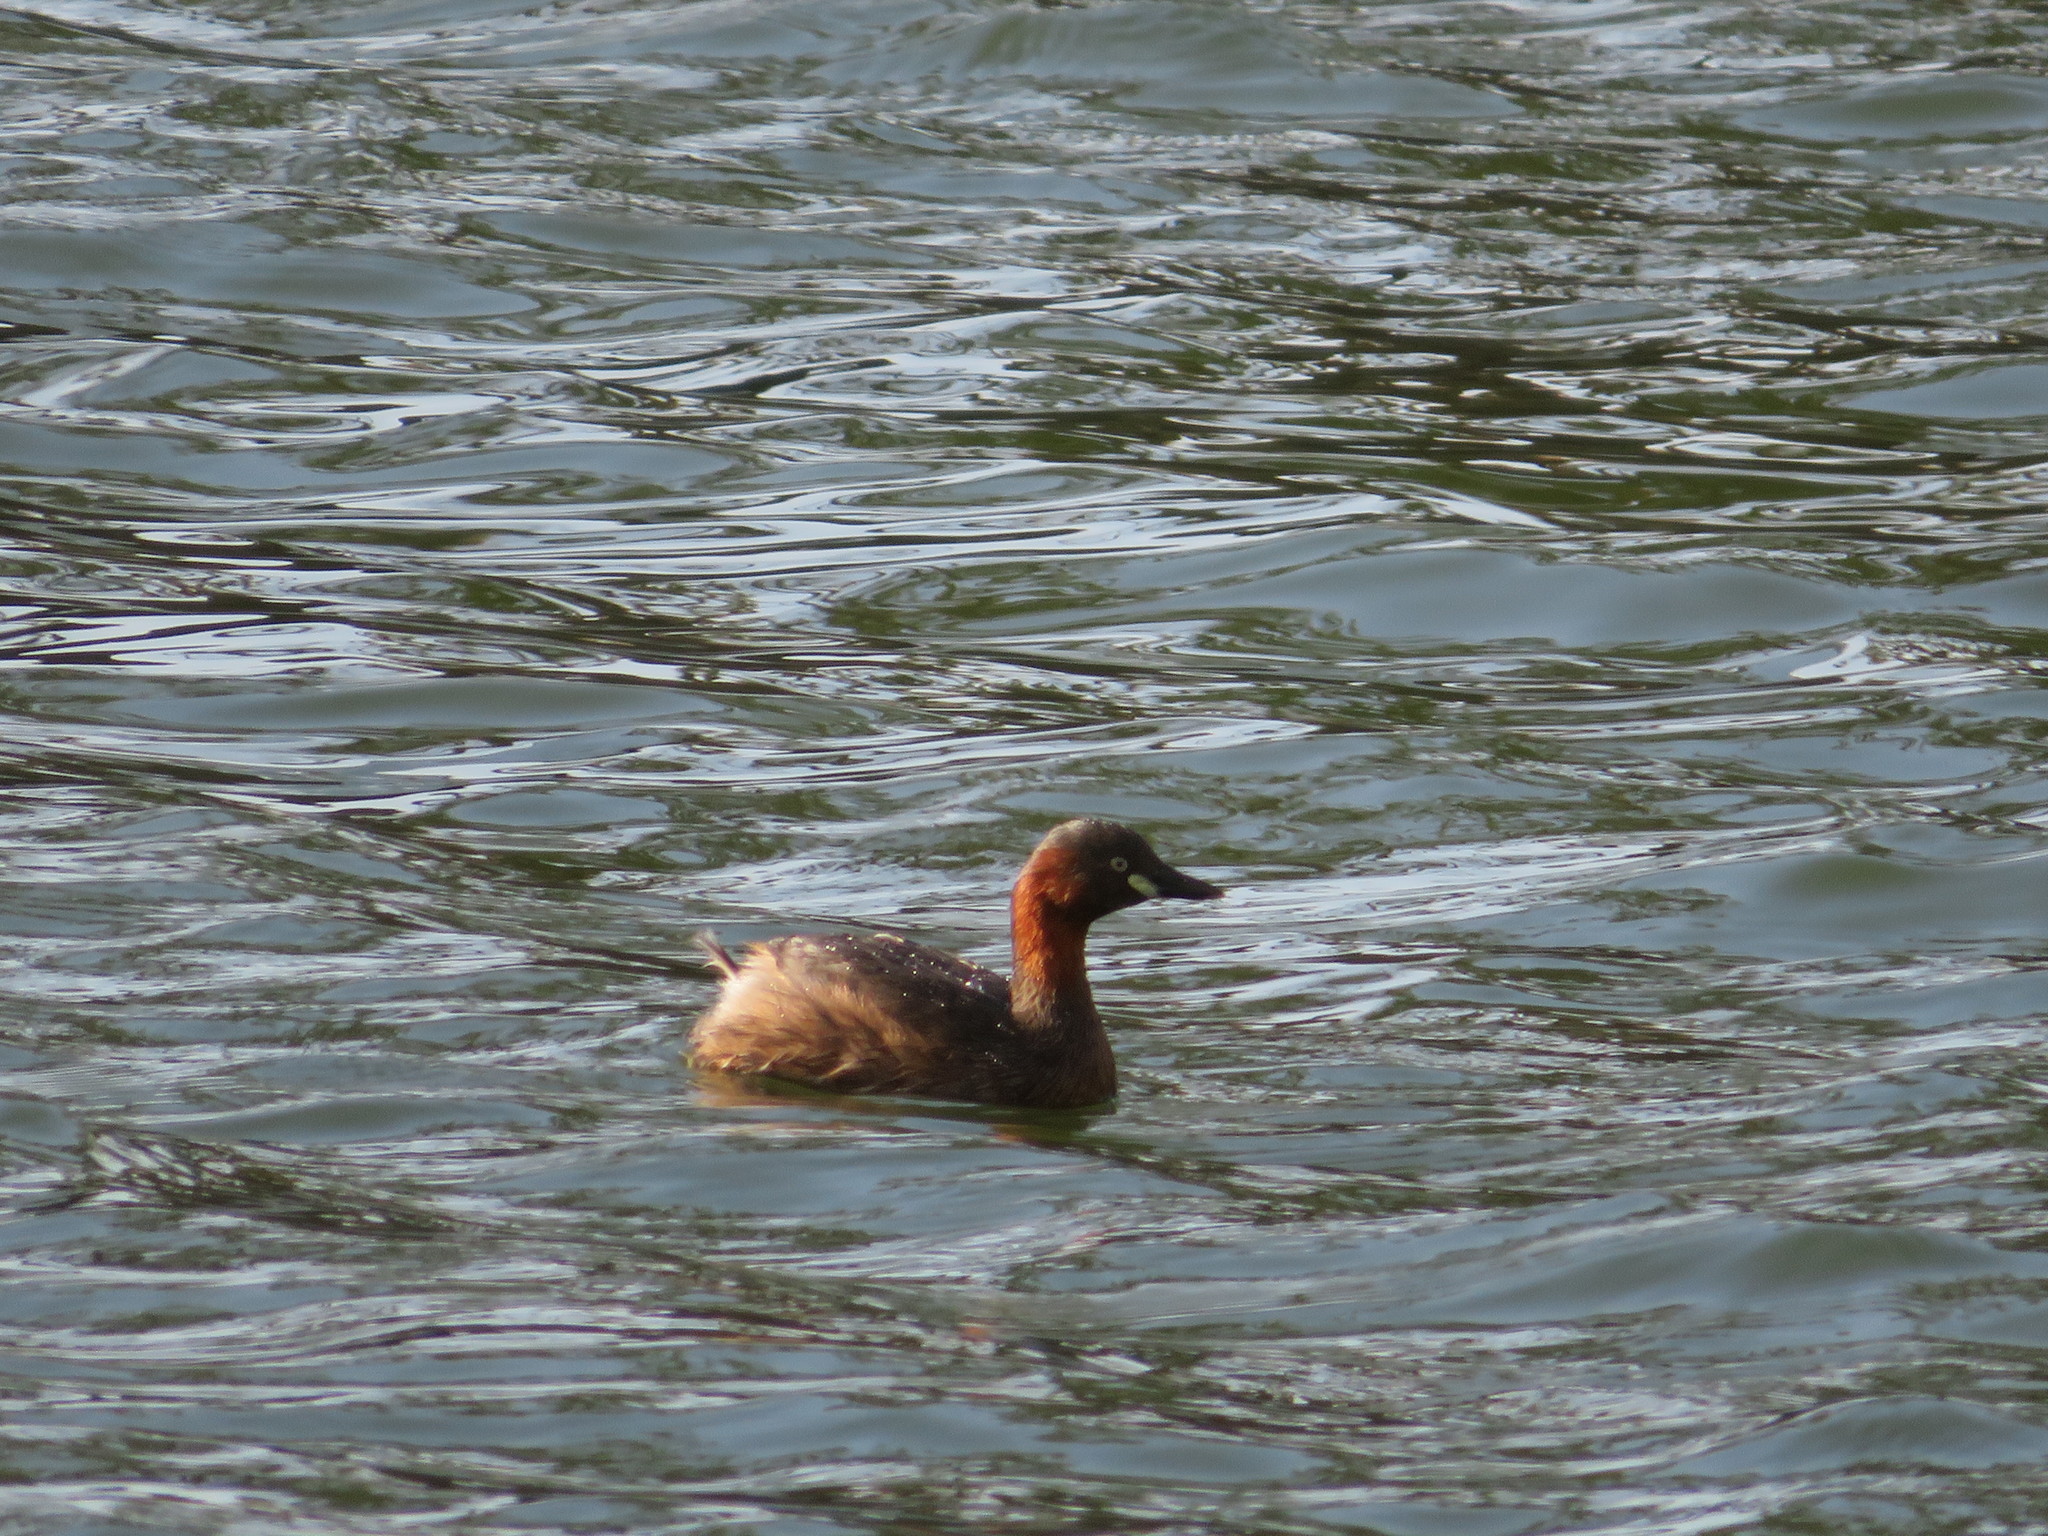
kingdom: Animalia
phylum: Chordata
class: Aves
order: Podicipediformes
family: Podicipedidae
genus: Tachybaptus
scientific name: Tachybaptus ruficollis
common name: Little grebe
